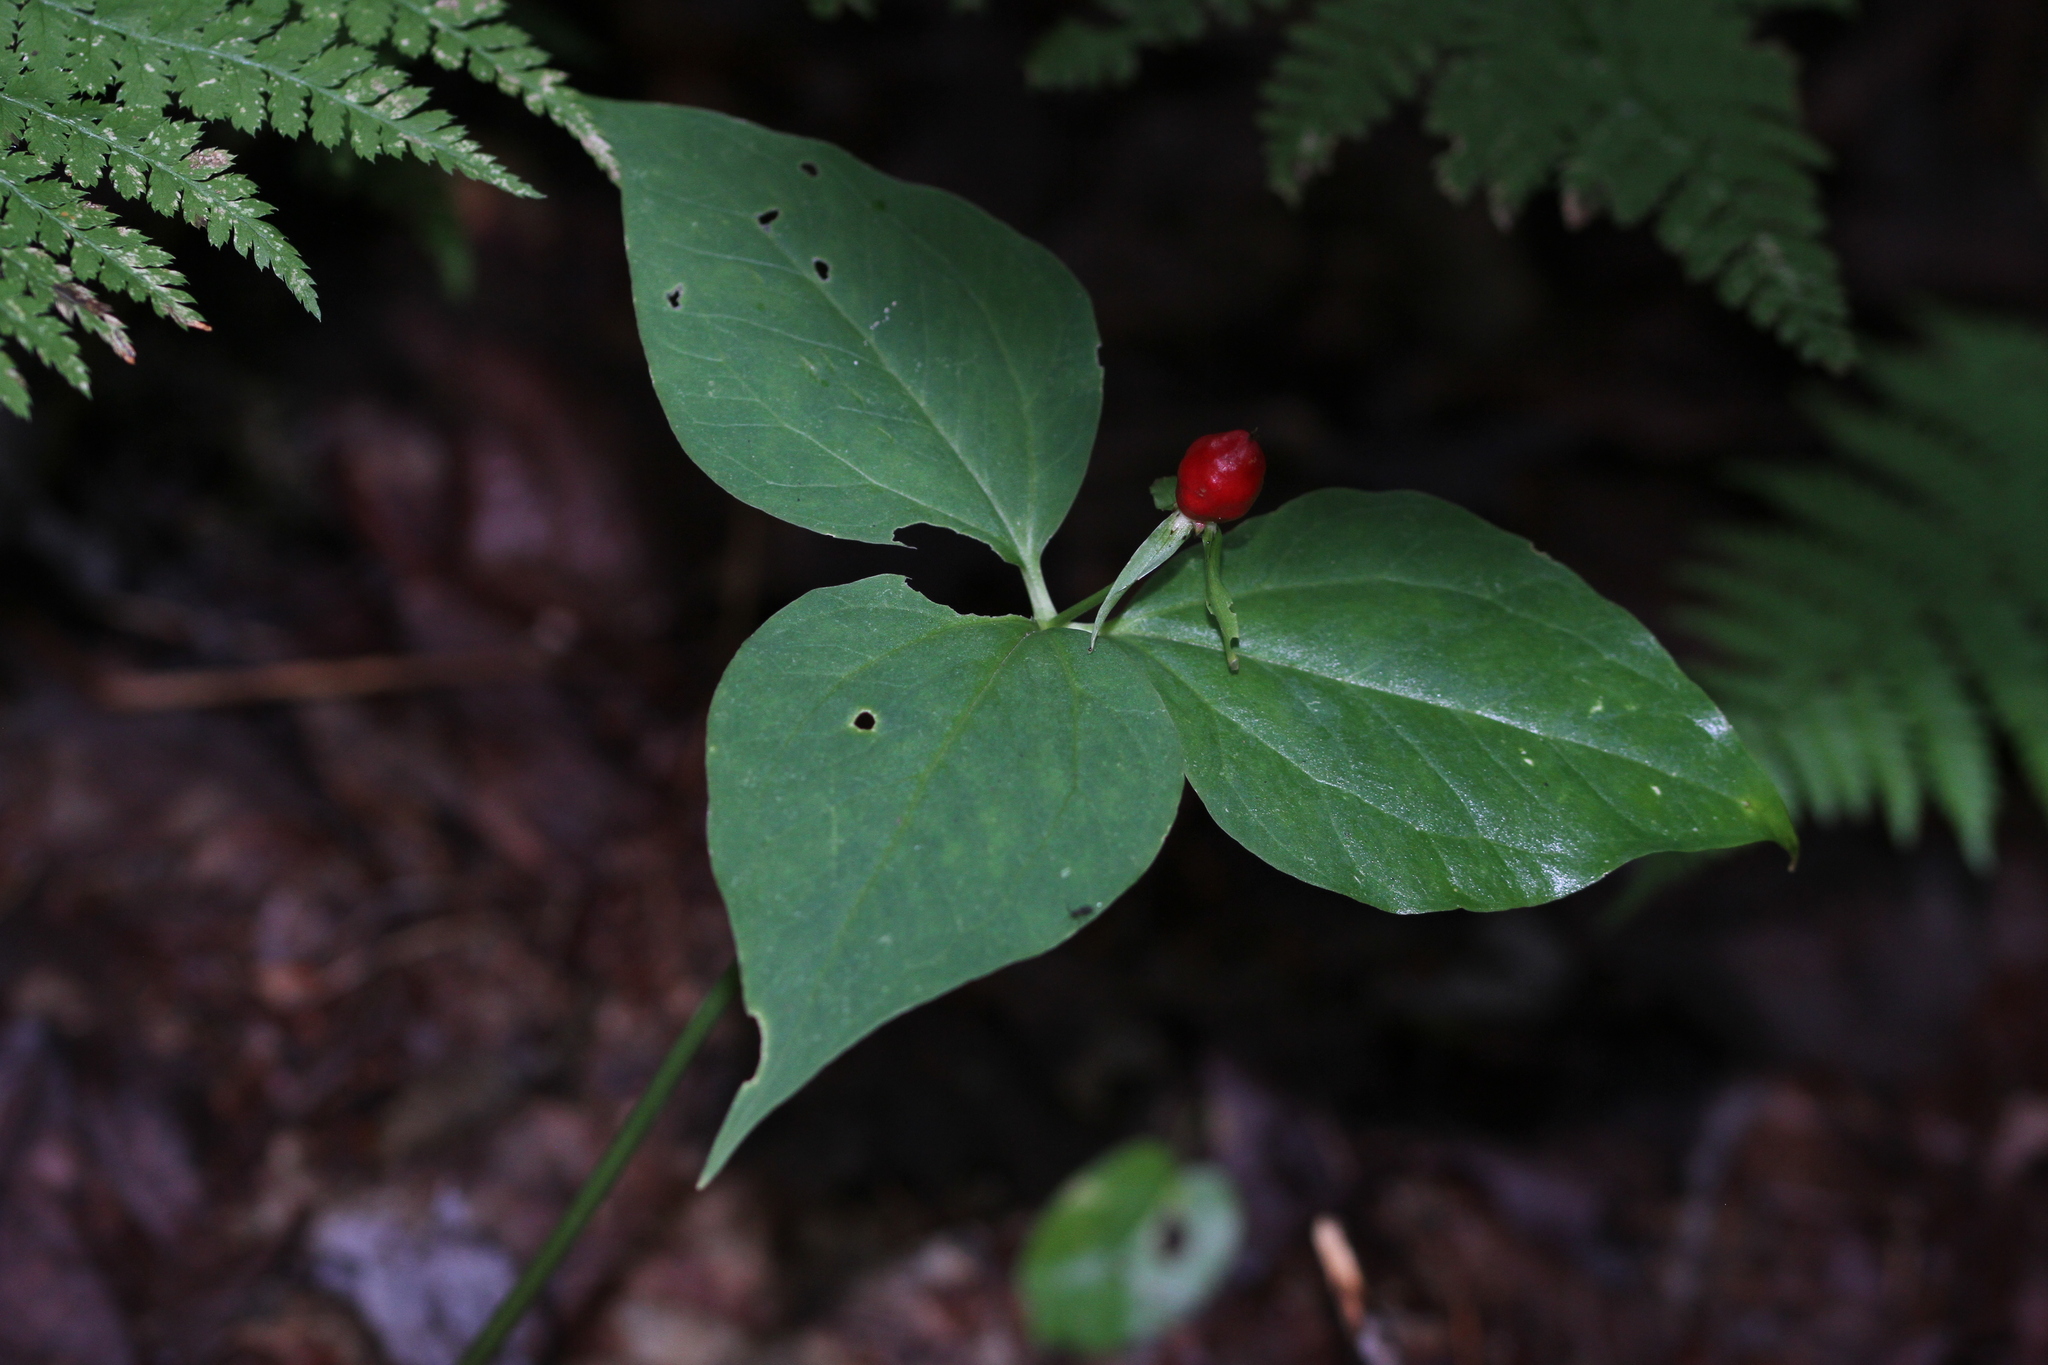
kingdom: Plantae
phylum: Tracheophyta
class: Liliopsida
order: Liliales
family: Melanthiaceae
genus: Trillium
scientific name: Trillium undulatum
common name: Paint trillium
